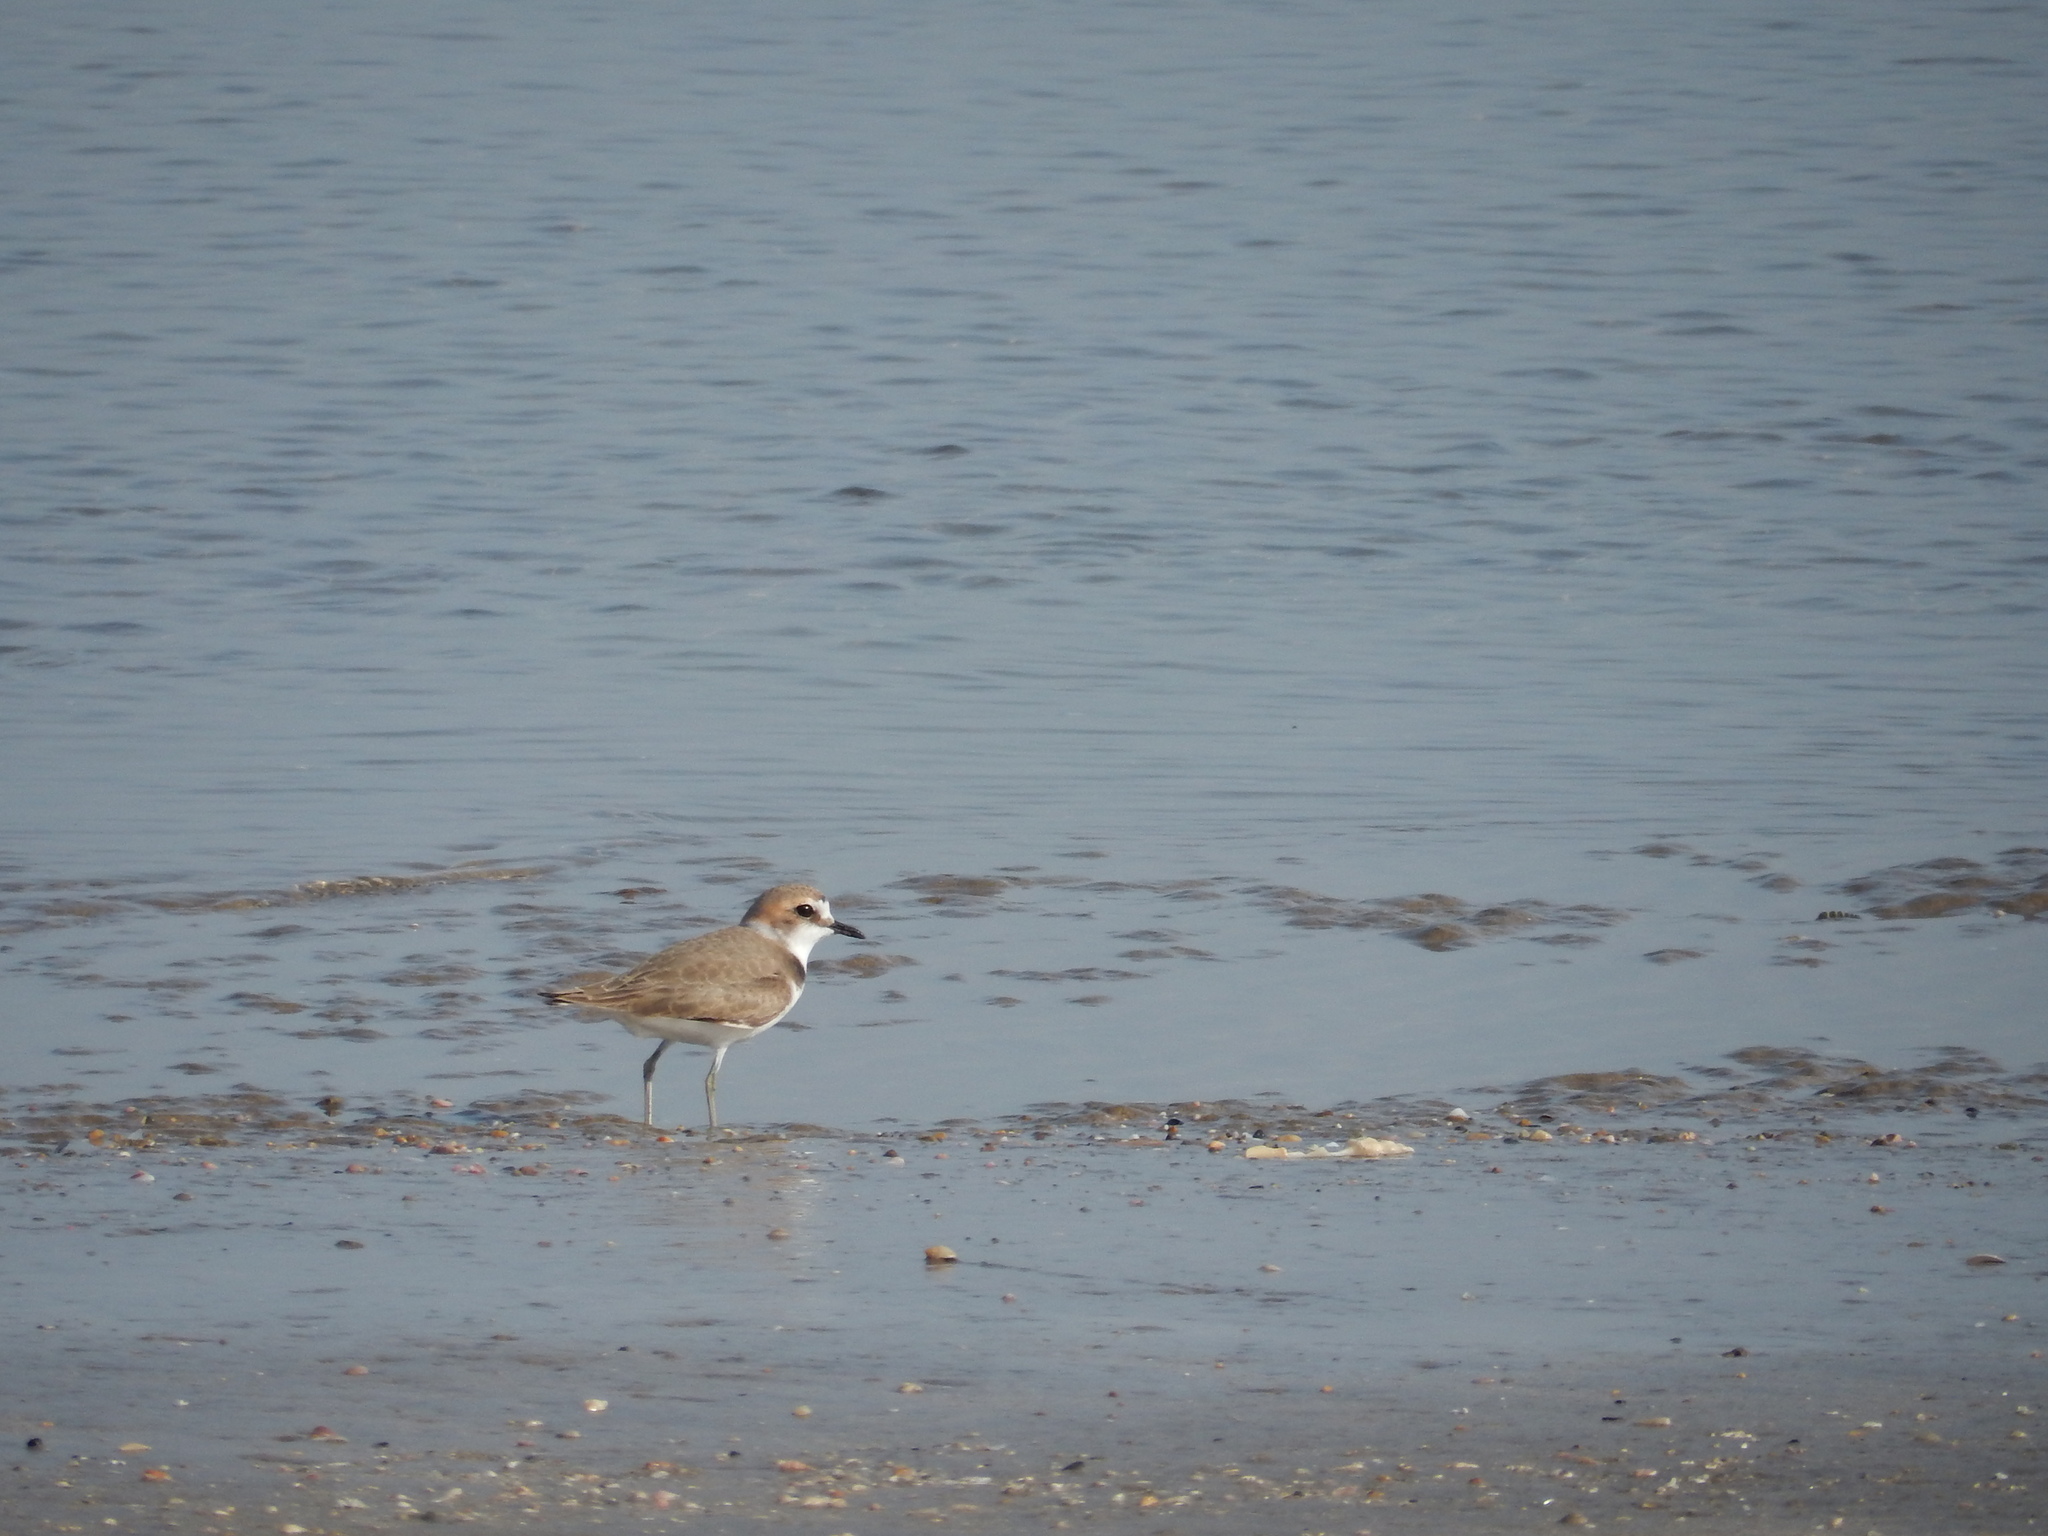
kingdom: Animalia
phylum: Chordata
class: Aves
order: Charadriiformes
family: Charadriidae
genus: Charadrius
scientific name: Charadrius alexandrinus
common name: Kentish plover
